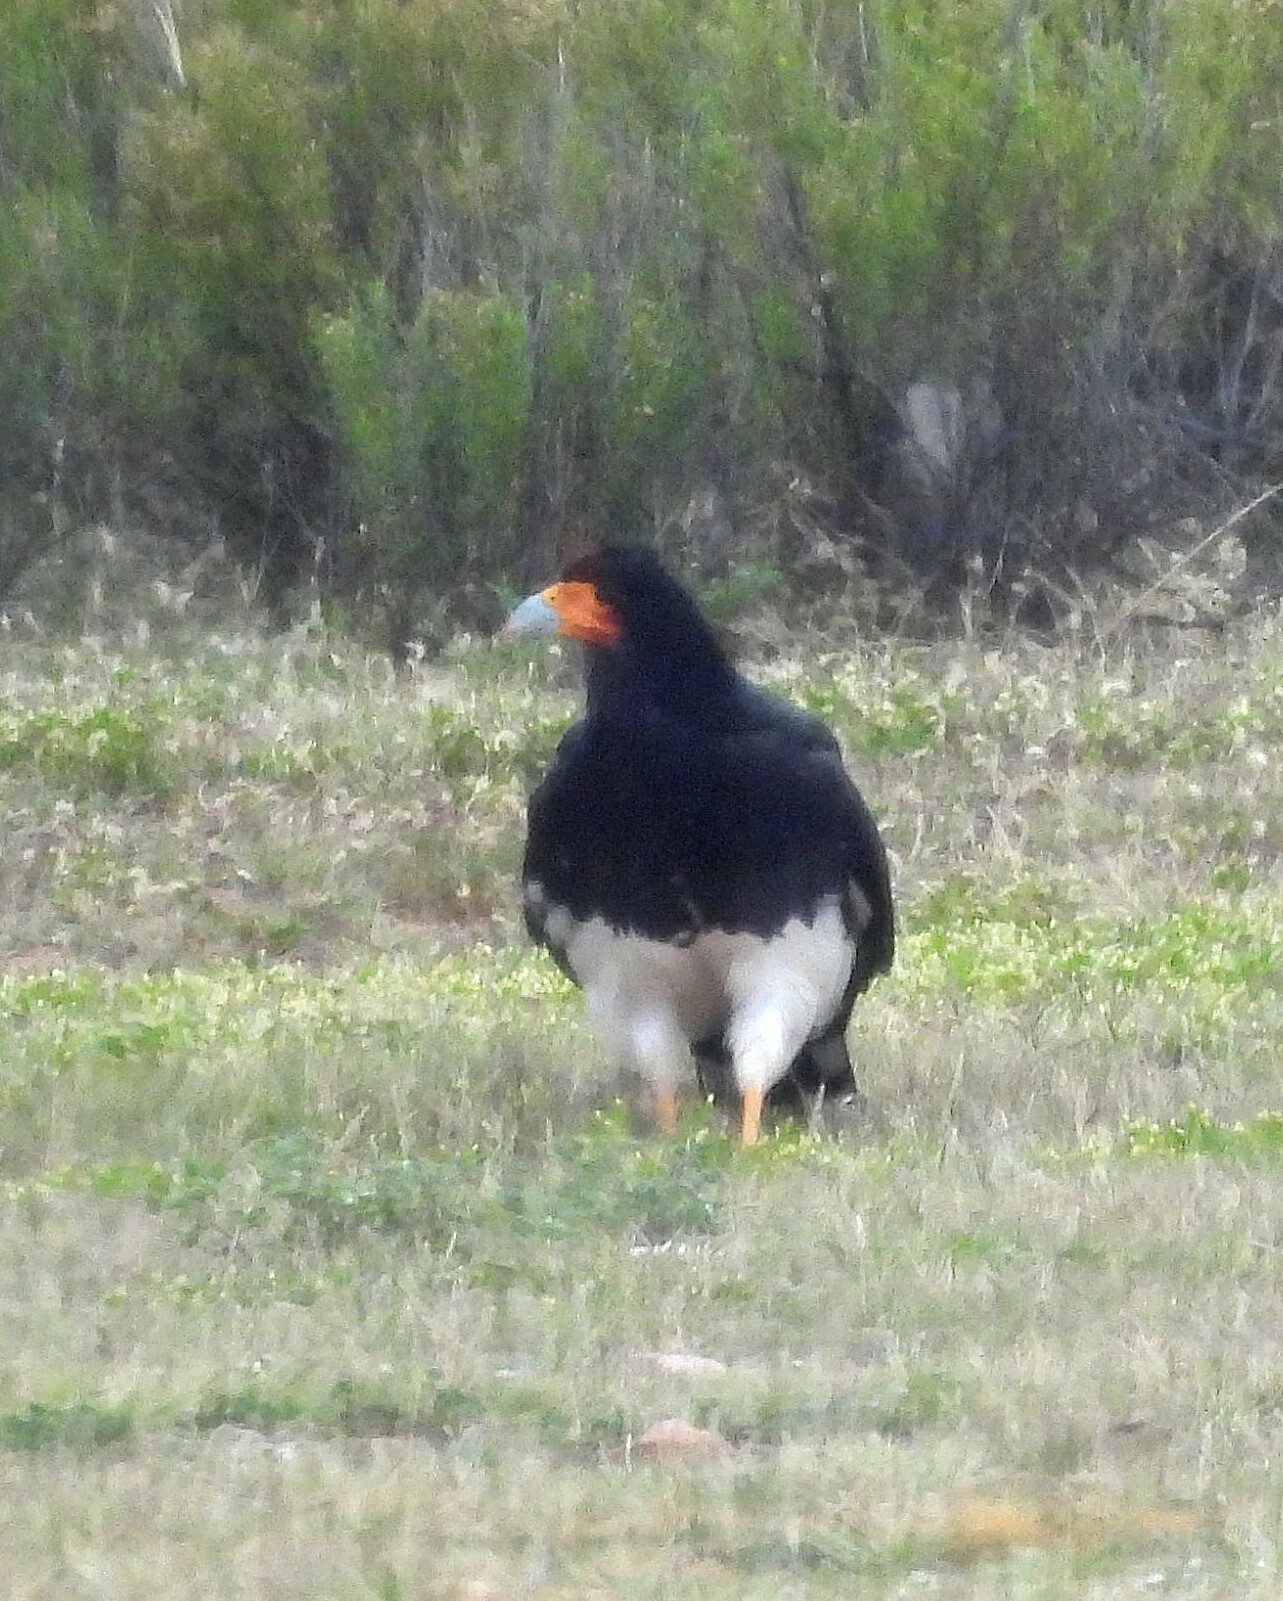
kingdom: Animalia
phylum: Chordata
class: Aves
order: Falconiformes
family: Falconidae
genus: Daptrius
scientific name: Daptrius
